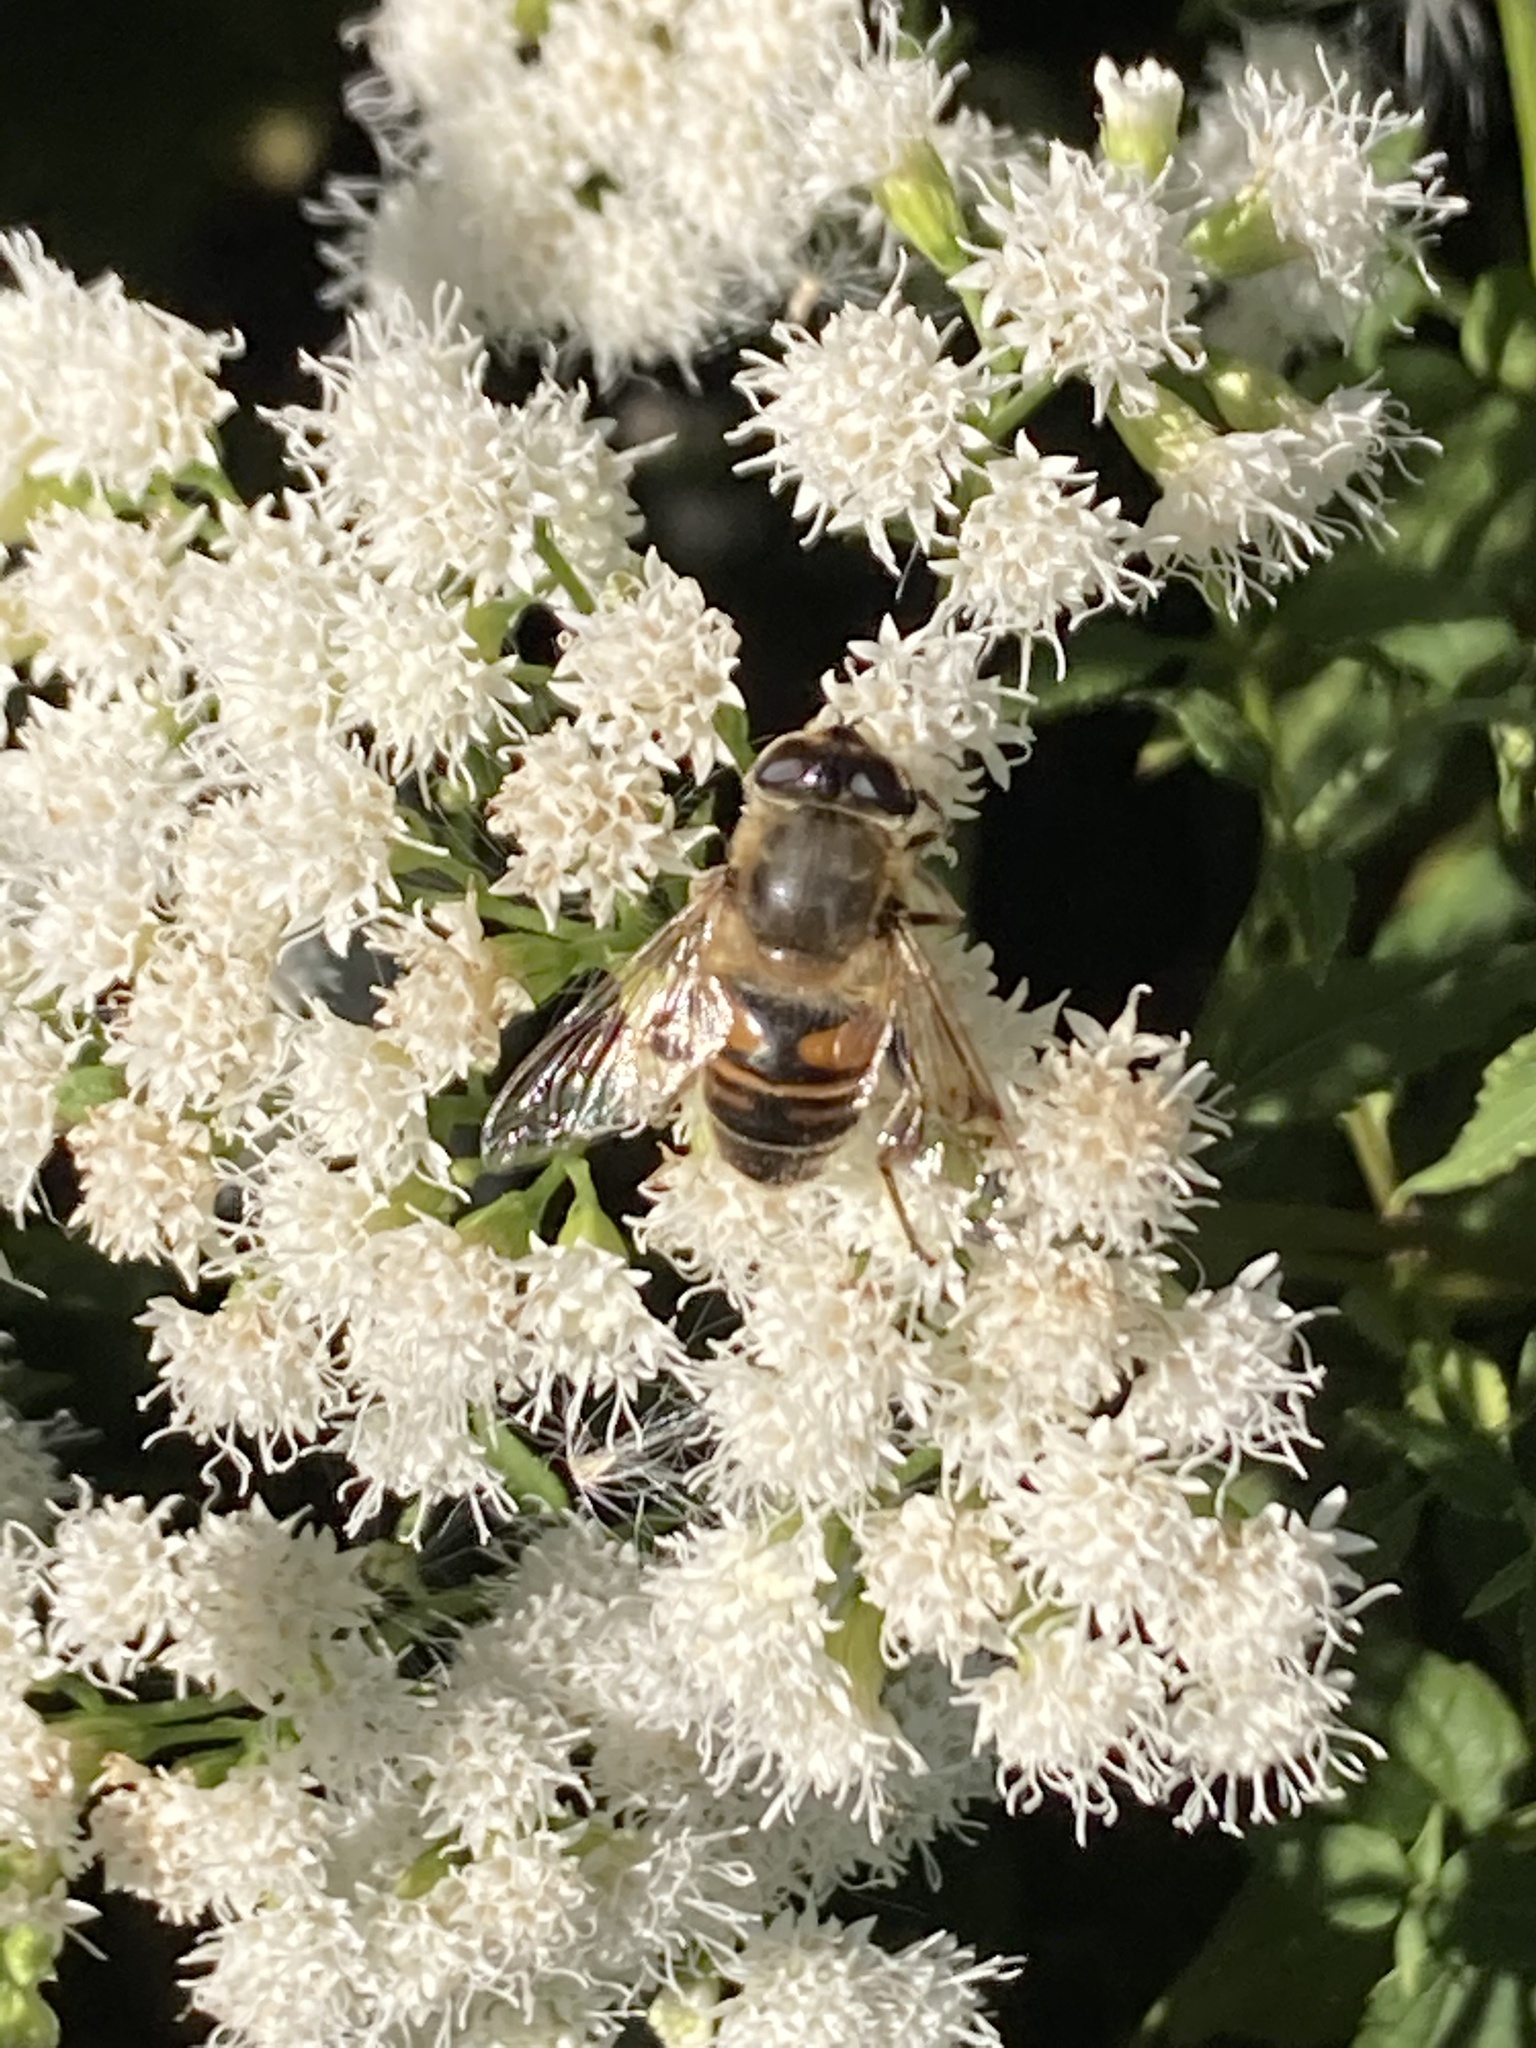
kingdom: Animalia
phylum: Arthropoda
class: Insecta
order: Diptera
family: Syrphidae
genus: Eristalis
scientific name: Eristalis tenax
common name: Drone fly
